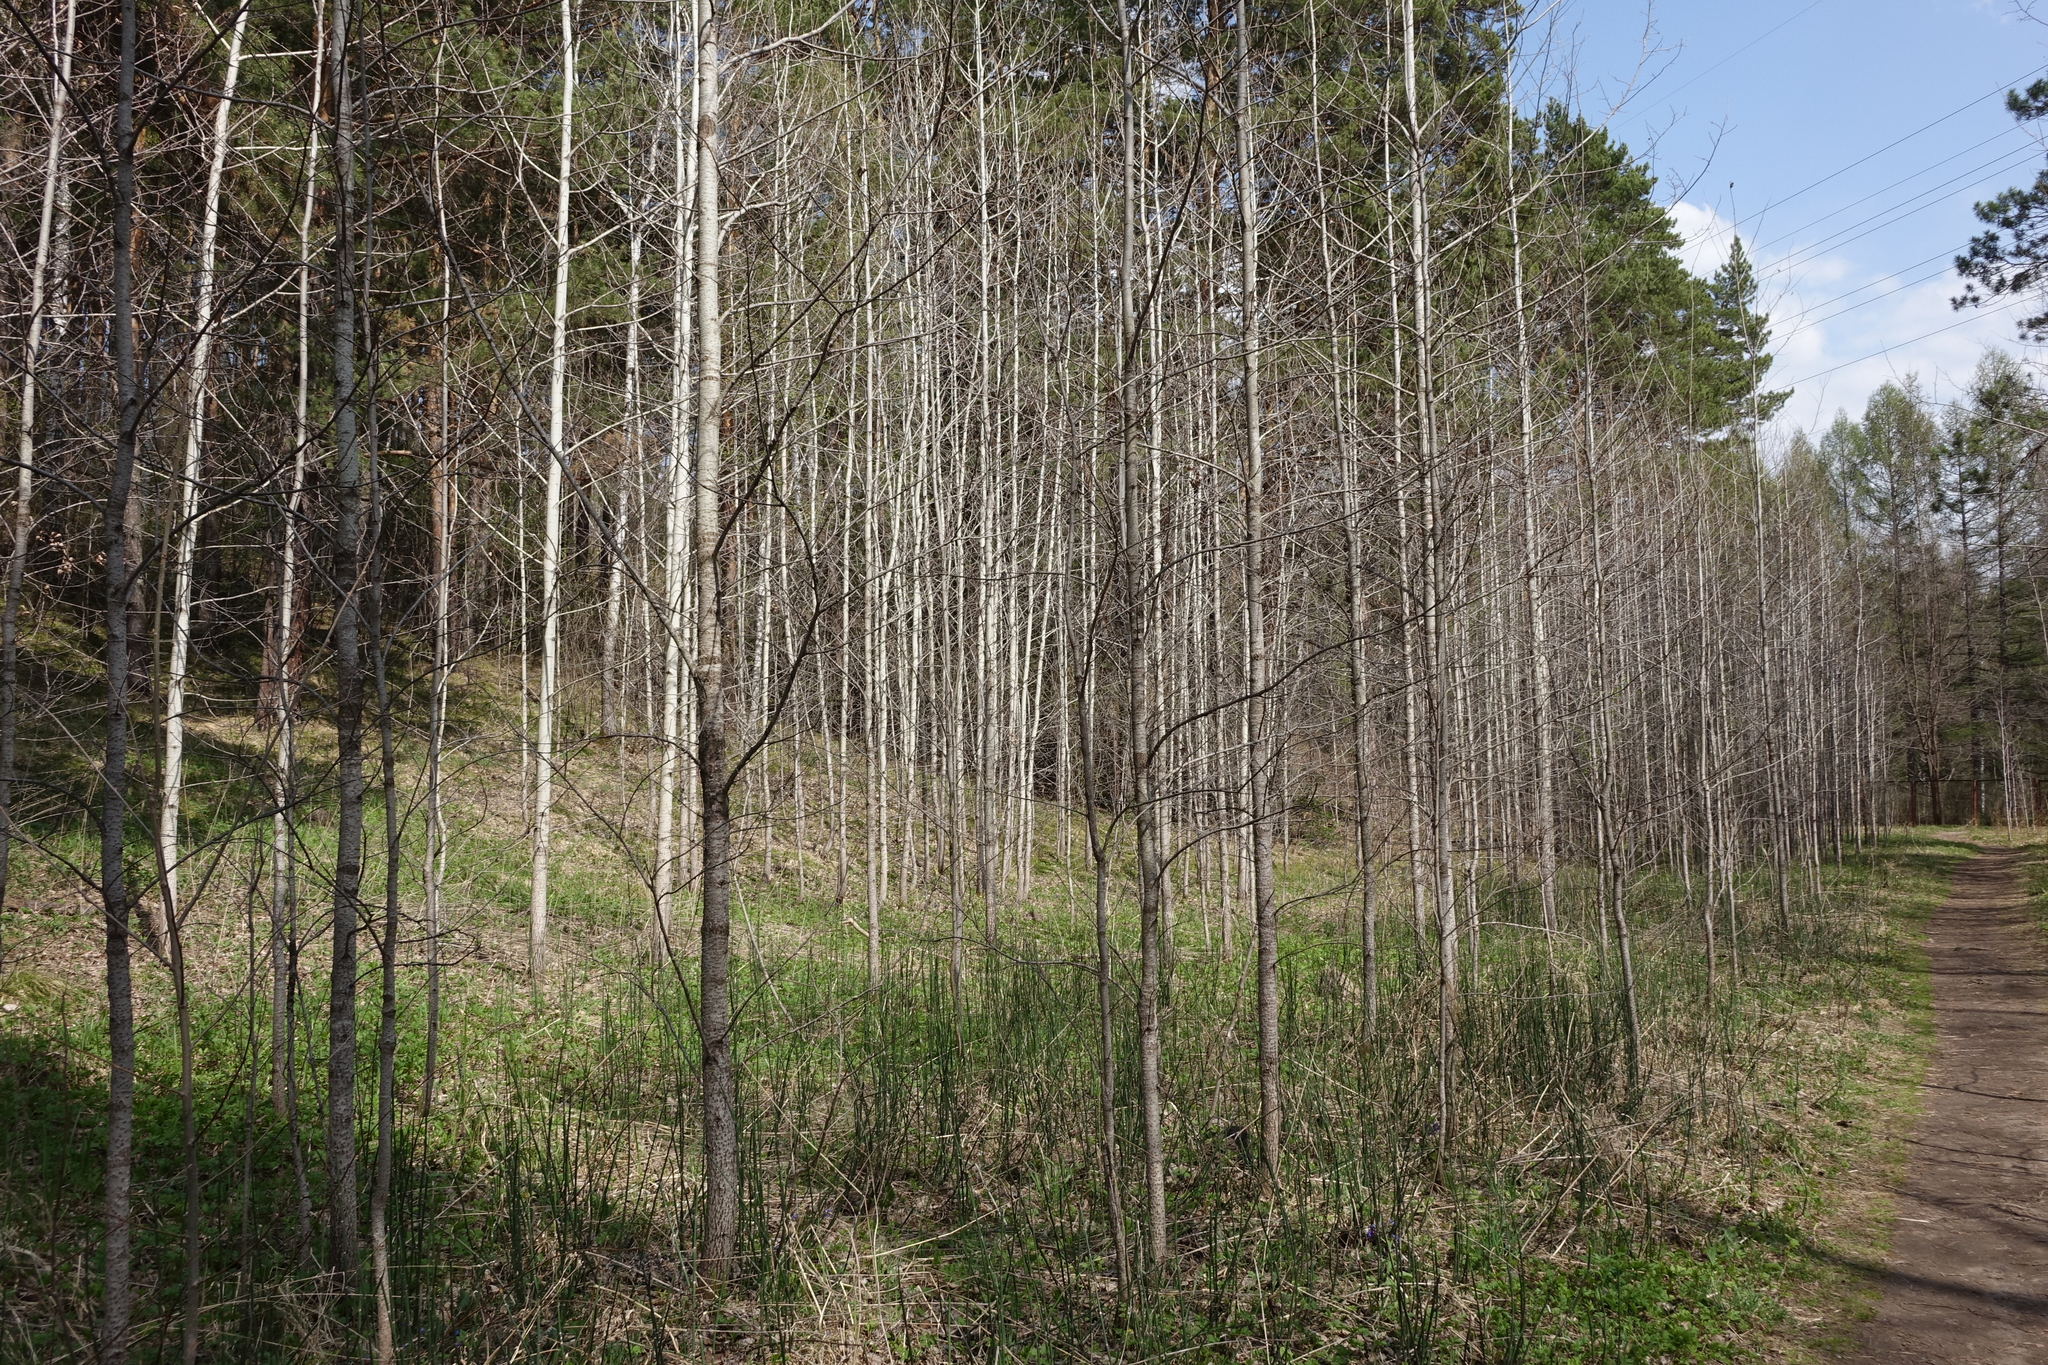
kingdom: Plantae
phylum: Tracheophyta
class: Magnoliopsida
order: Malpighiales
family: Salicaceae
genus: Populus
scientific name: Populus tremula
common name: European aspen
